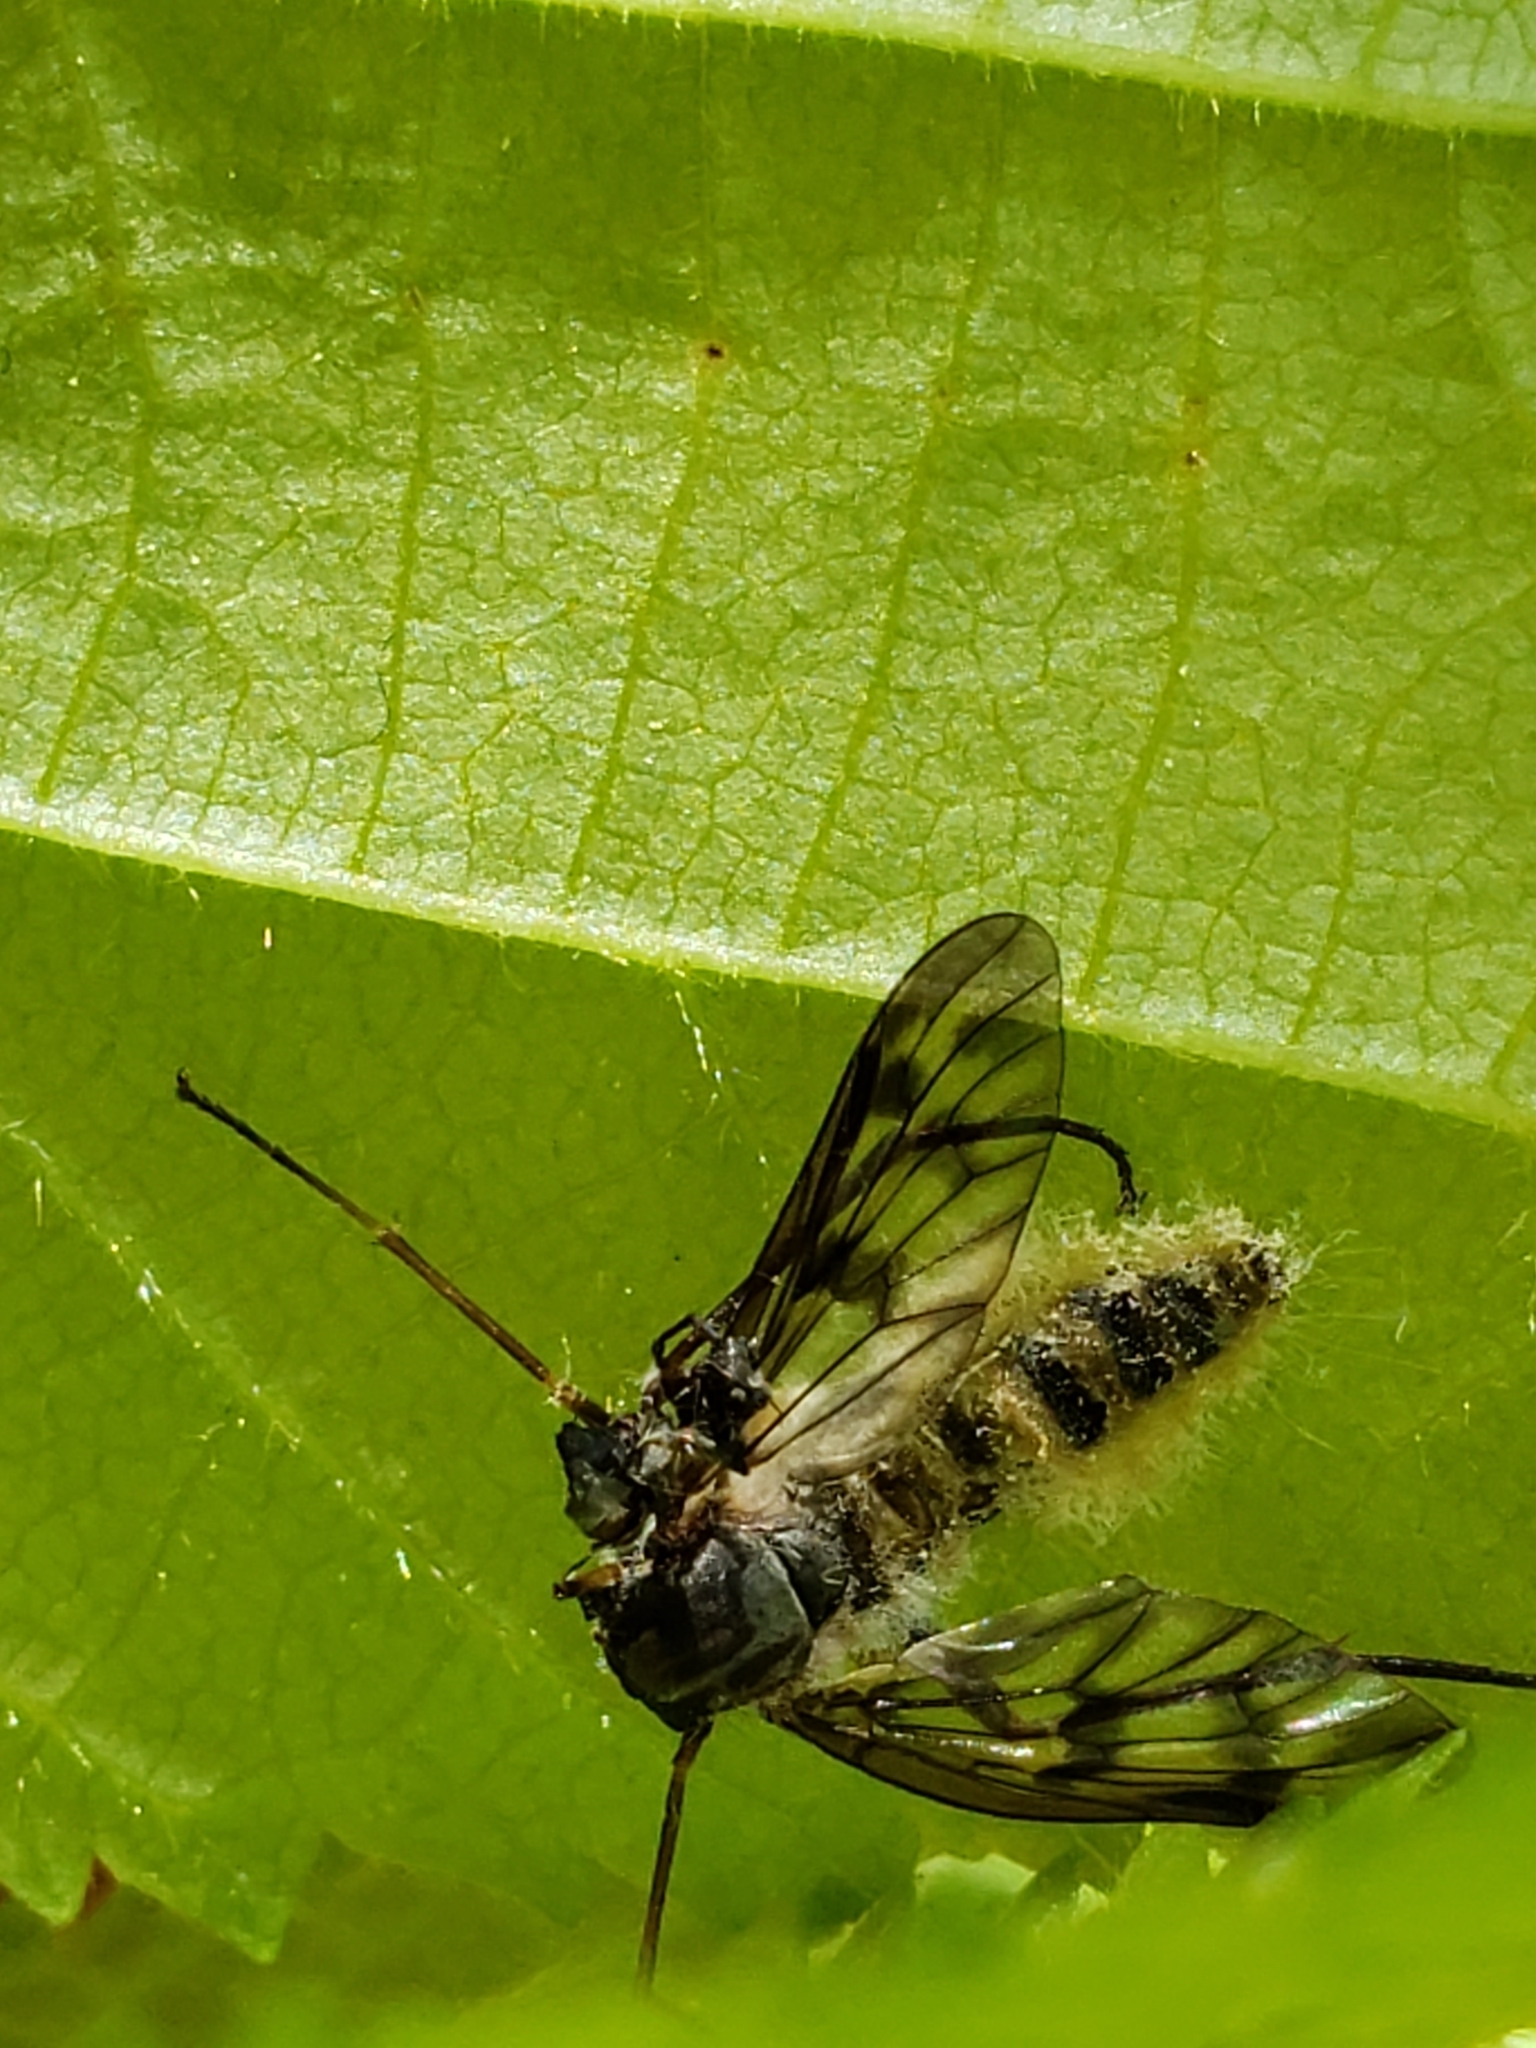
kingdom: Animalia
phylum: Arthropoda
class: Insecta
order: Diptera
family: Rhagionidae
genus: Rhagio
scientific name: Rhagio mystaceus
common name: Common snipe fly
